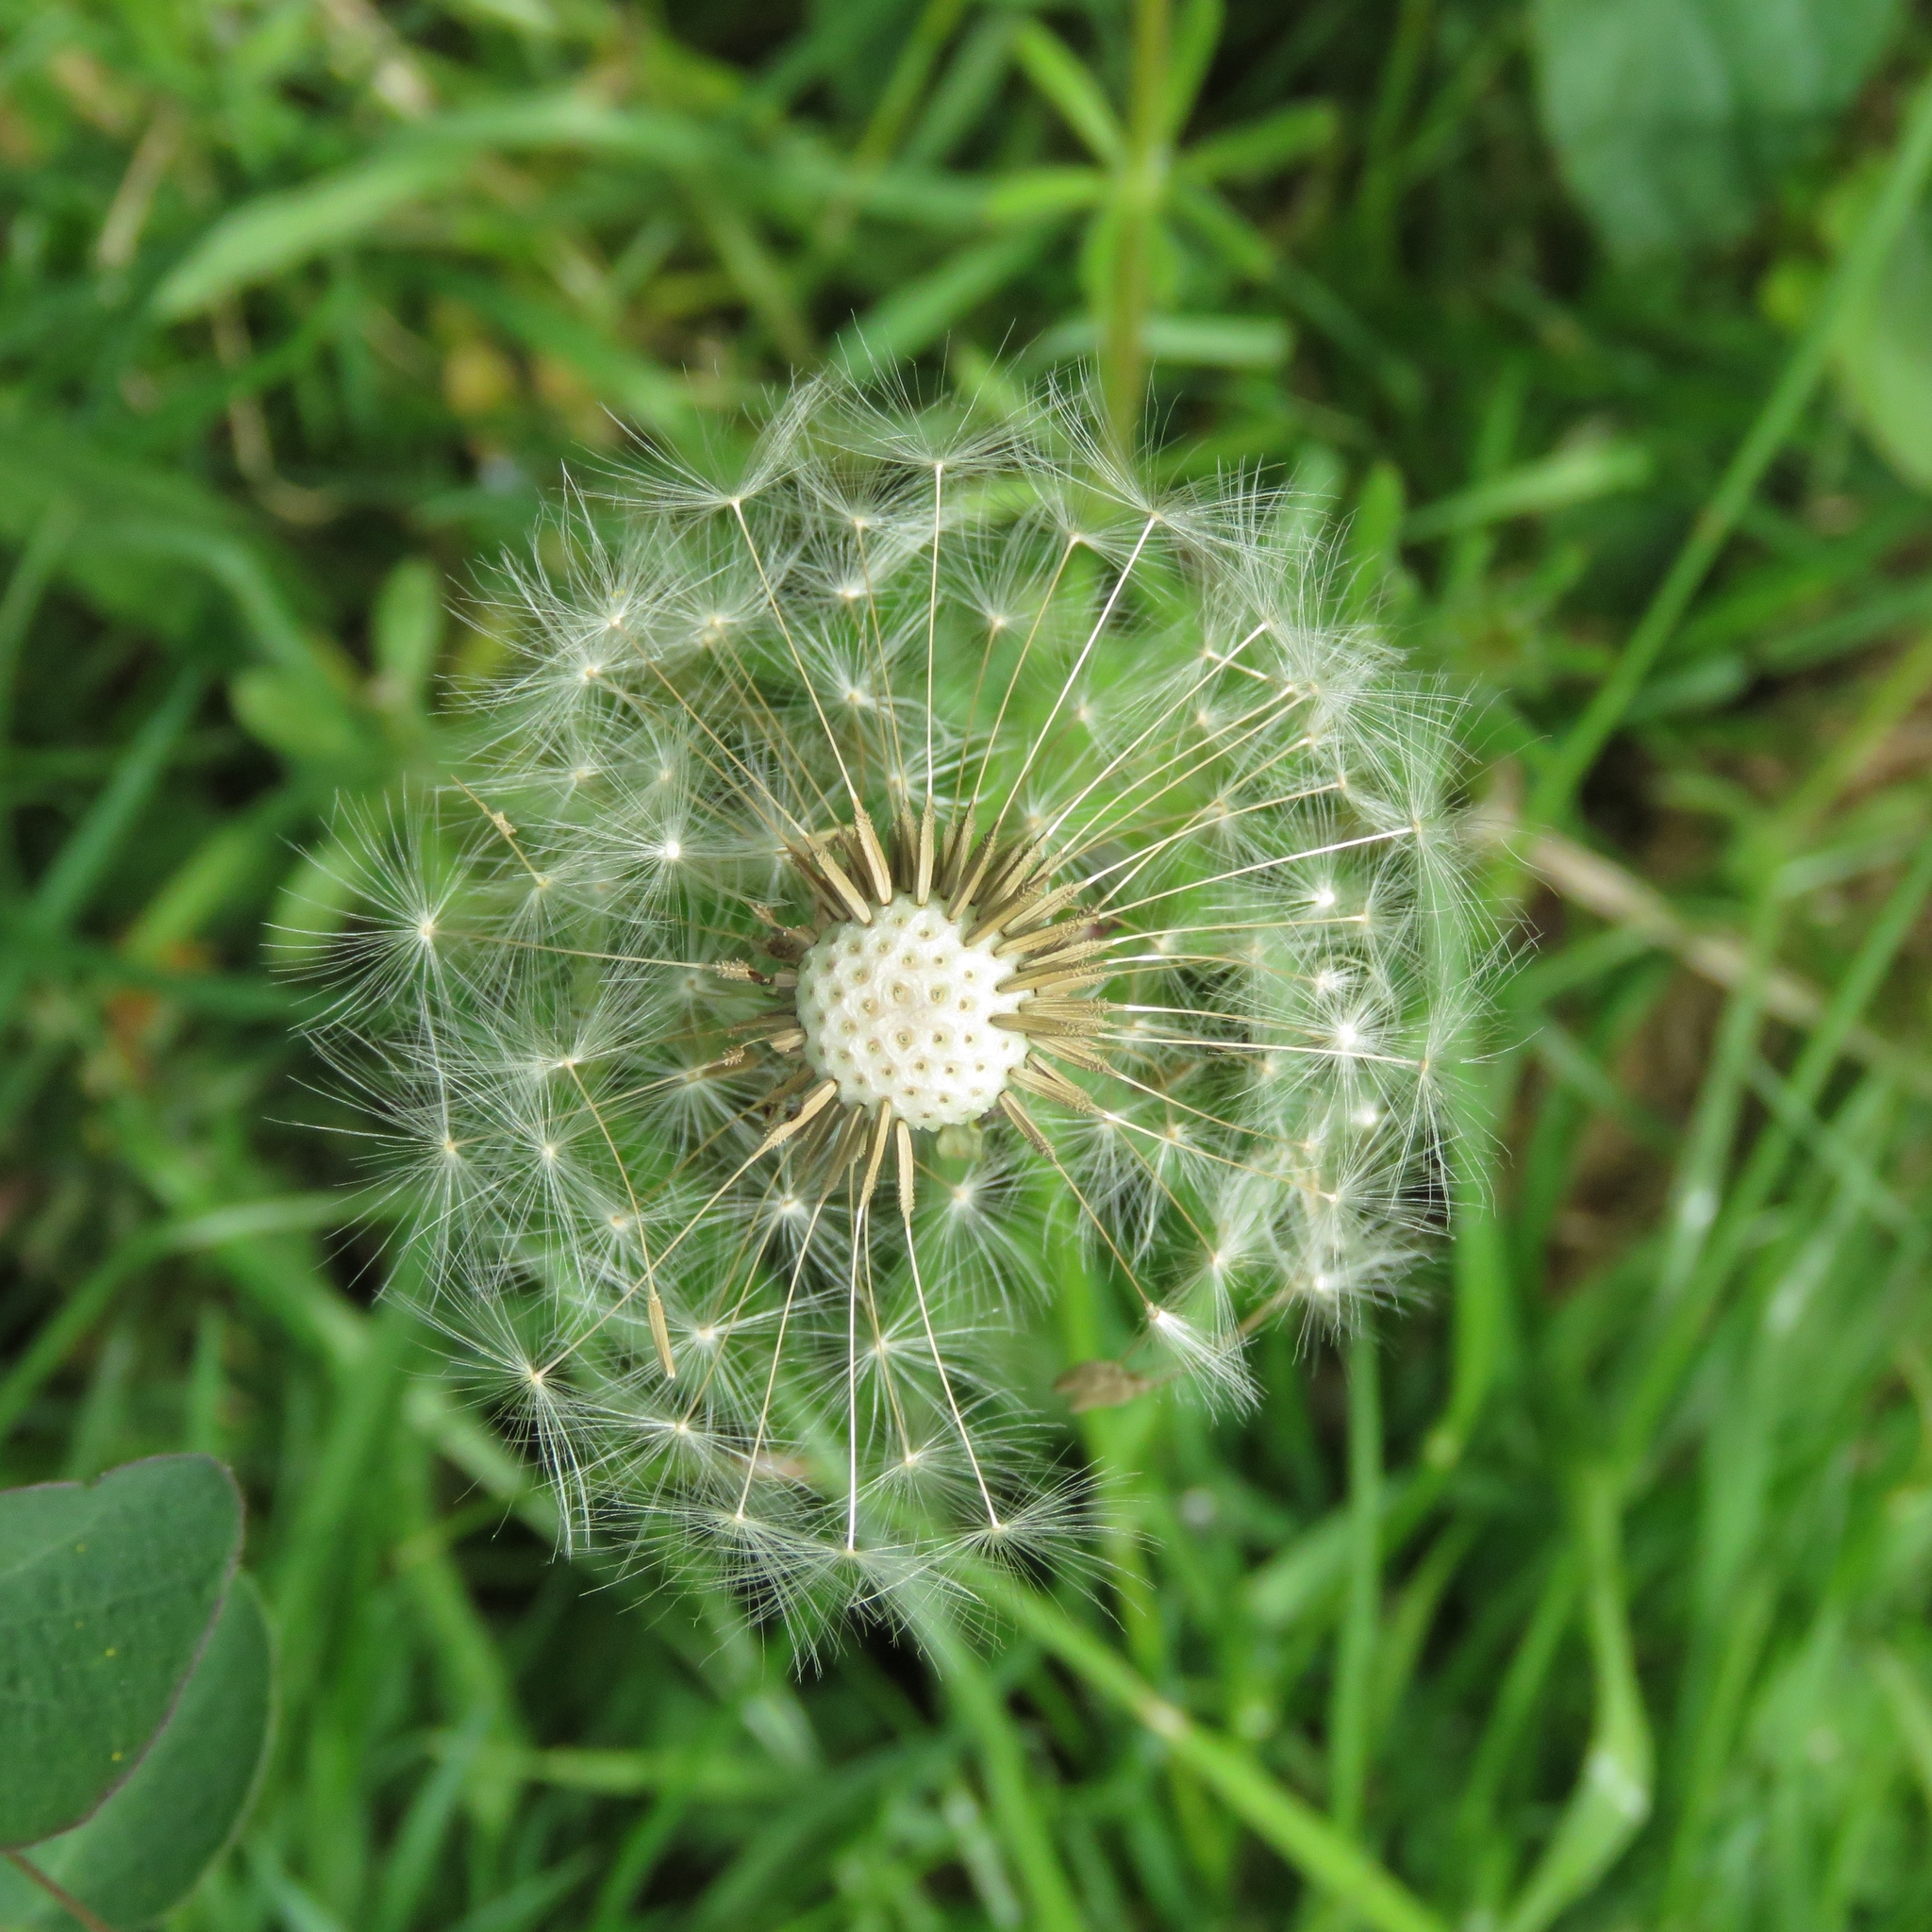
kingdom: Plantae
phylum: Tracheophyta
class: Magnoliopsida
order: Asterales
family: Asteraceae
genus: Taraxacum
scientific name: Taraxacum officinale
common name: Common dandelion
